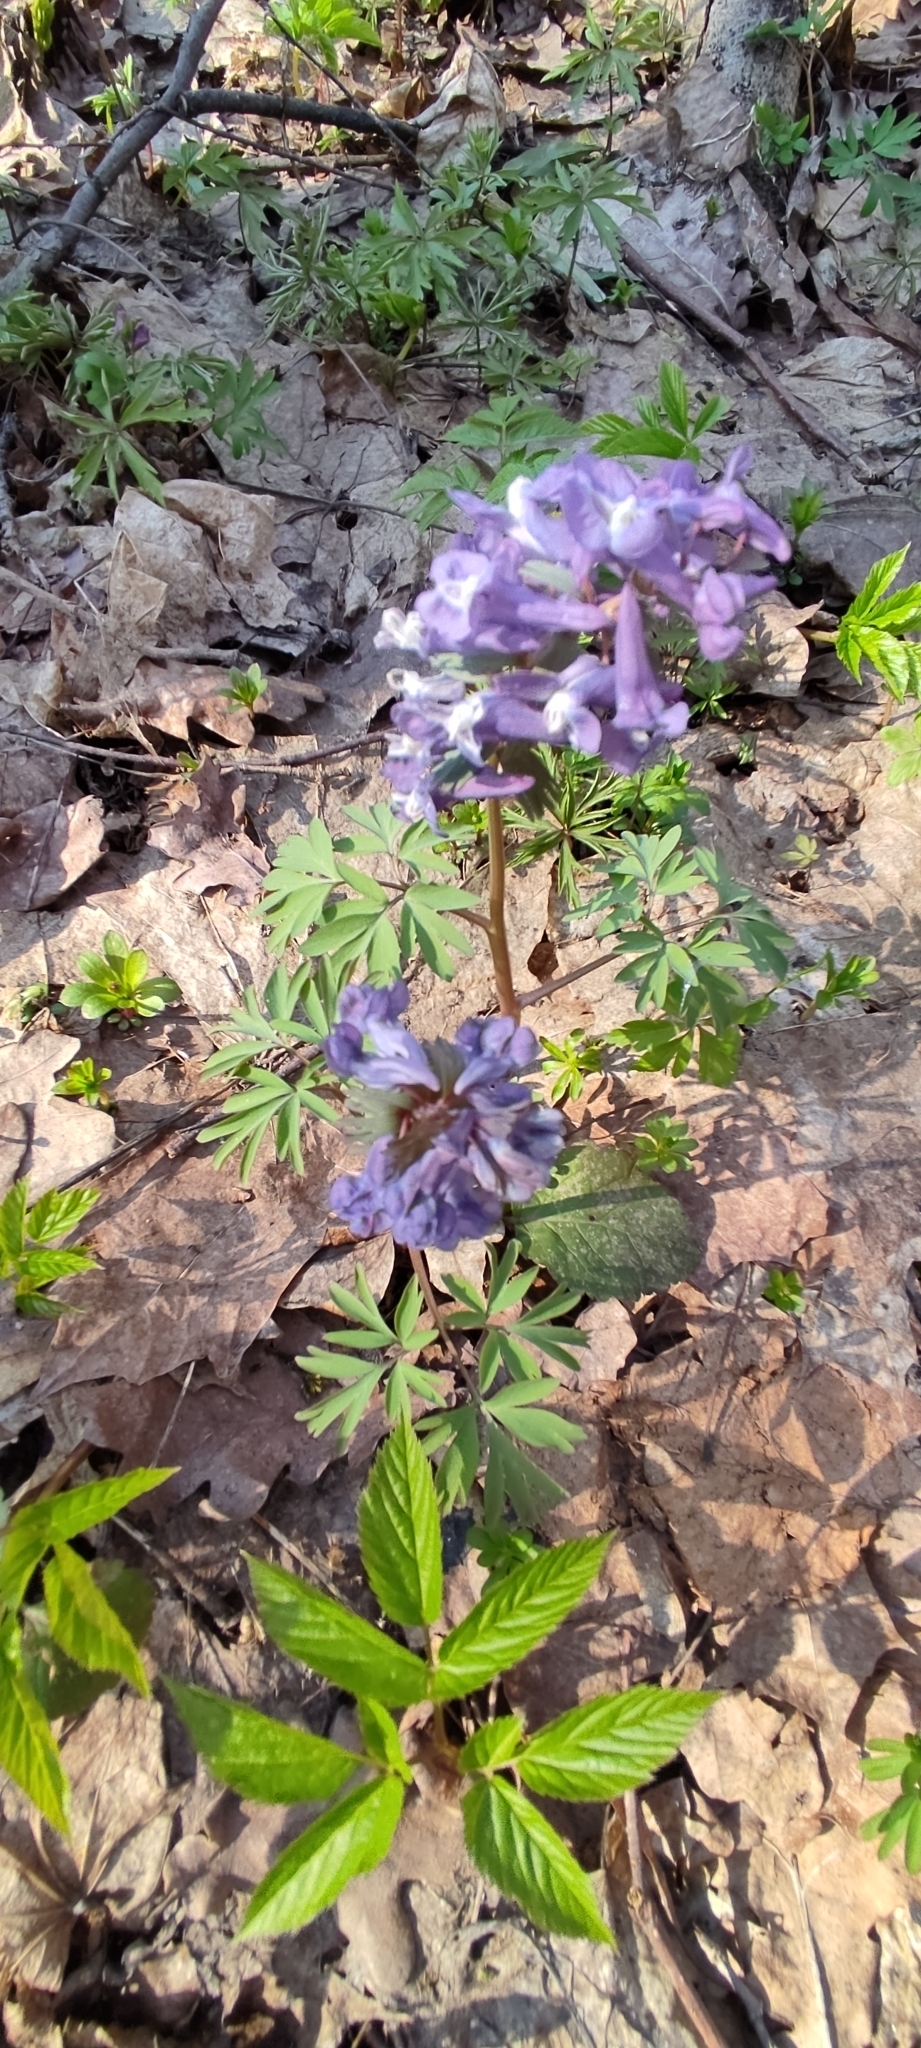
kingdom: Plantae
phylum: Tracheophyta
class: Magnoliopsida
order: Ranunculales
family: Papaveraceae
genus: Corydalis
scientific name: Corydalis solida
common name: Bird-in-a-bush
